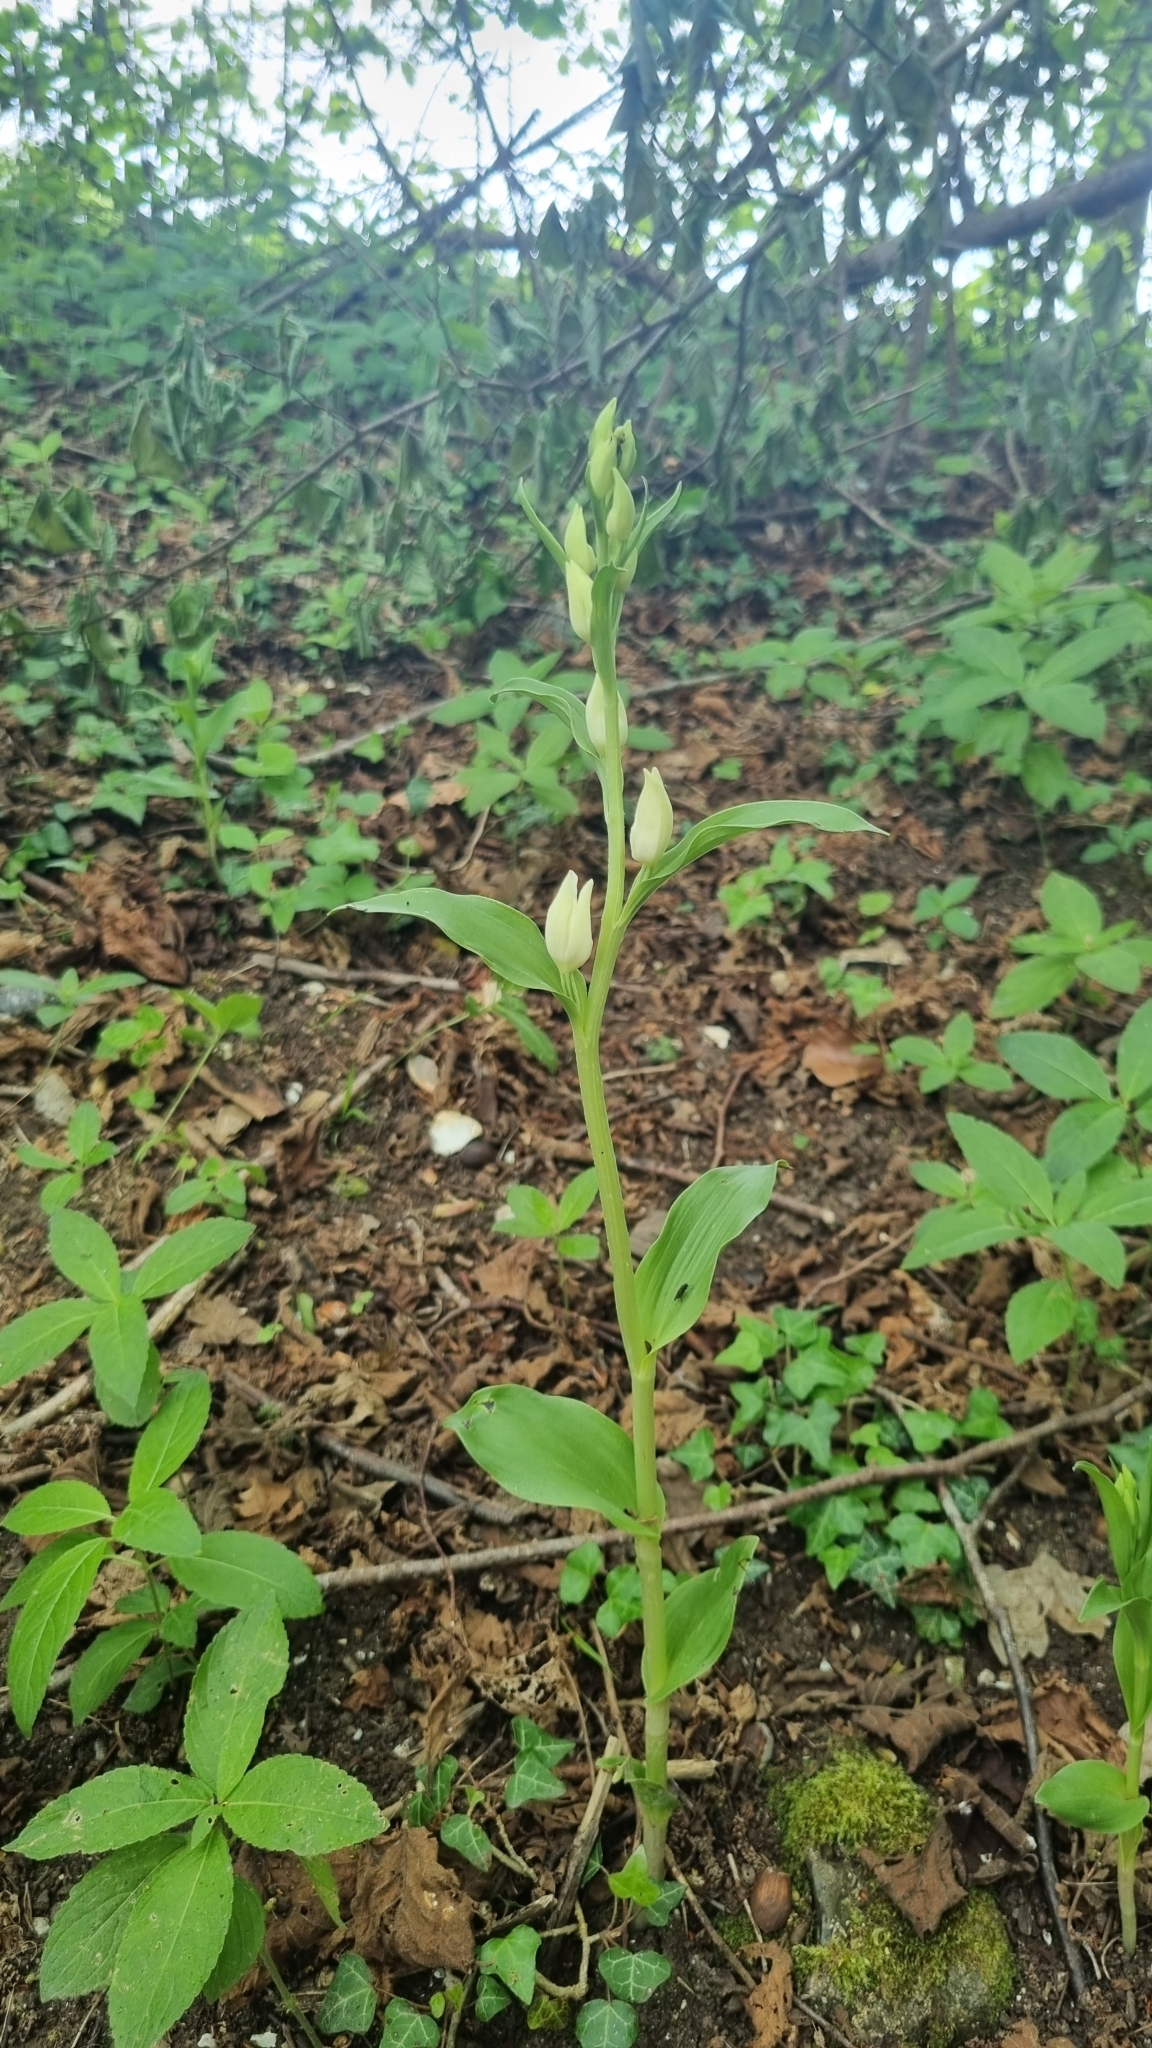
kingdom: Plantae
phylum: Tracheophyta
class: Liliopsida
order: Asparagales
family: Orchidaceae
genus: Cephalanthera
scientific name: Cephalanthera damasonium
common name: White helleborine
